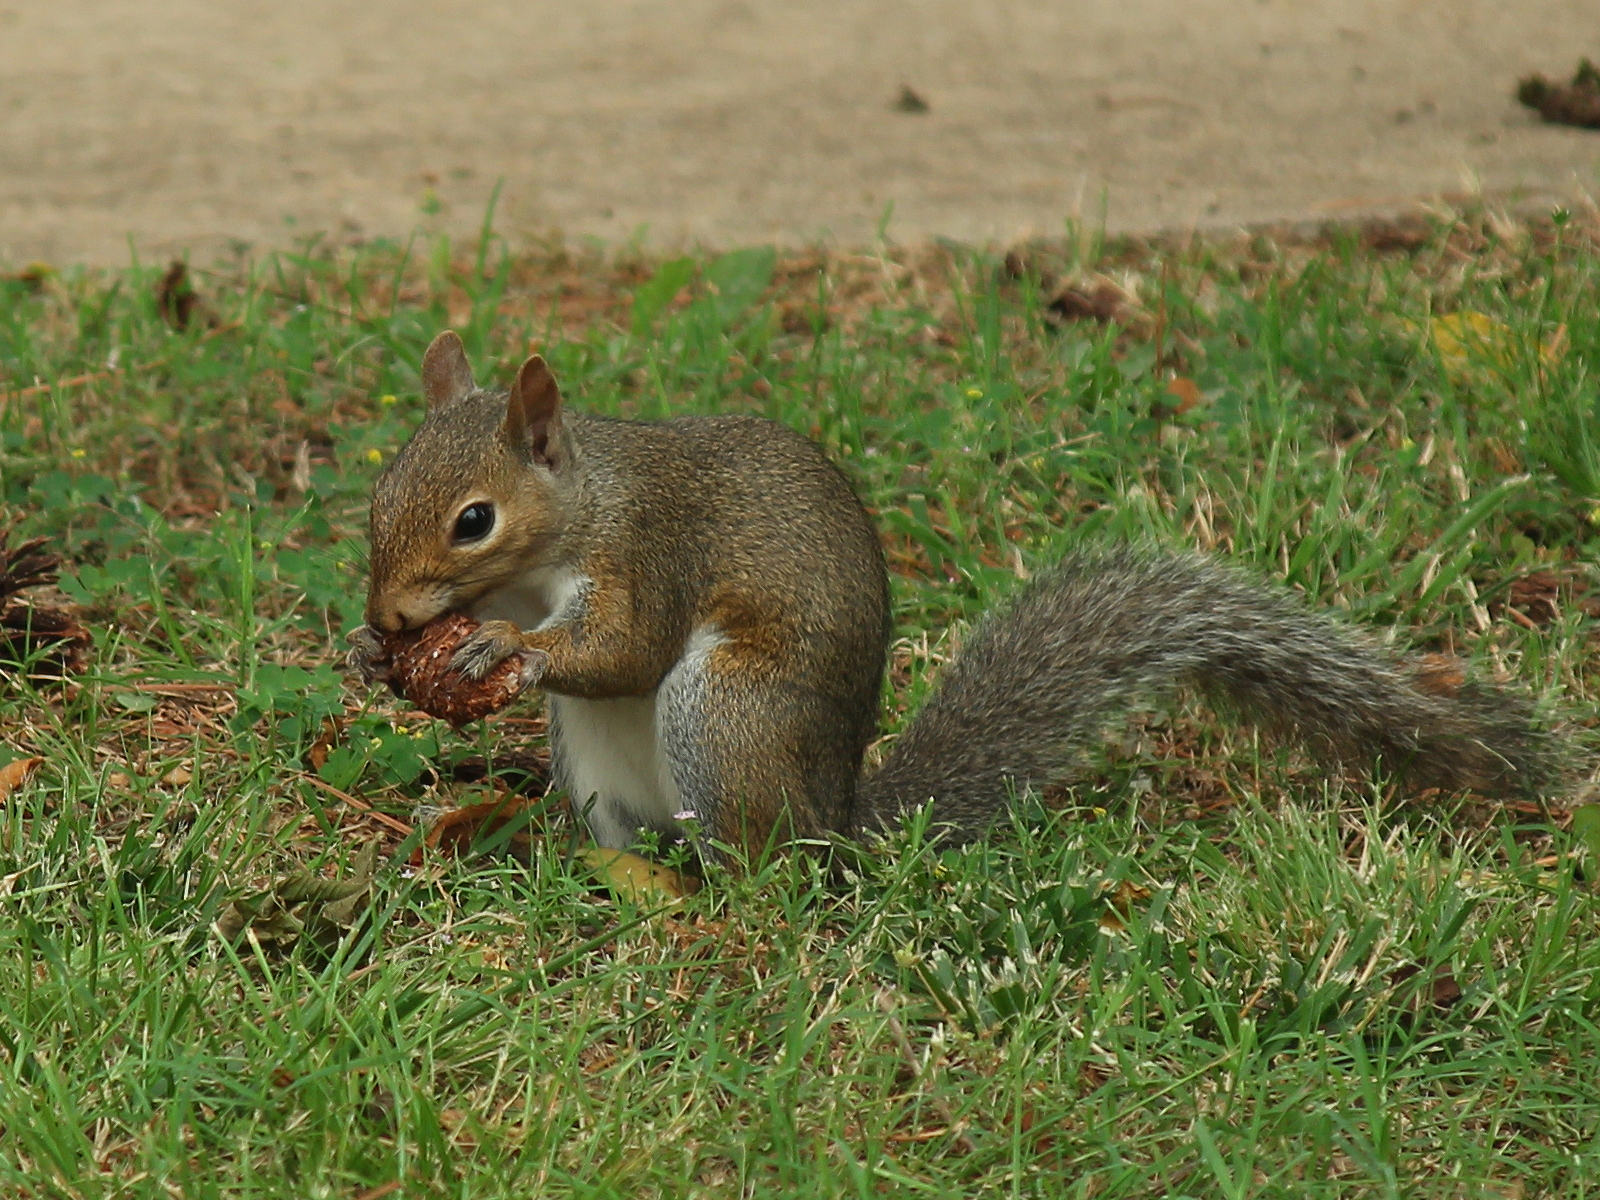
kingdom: Animalia
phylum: Chordata
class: Mammalia
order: Rodentia
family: Sciuridae
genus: Sciurus
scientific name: Sciurus carolinensis
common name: Eastern gray squirrel
